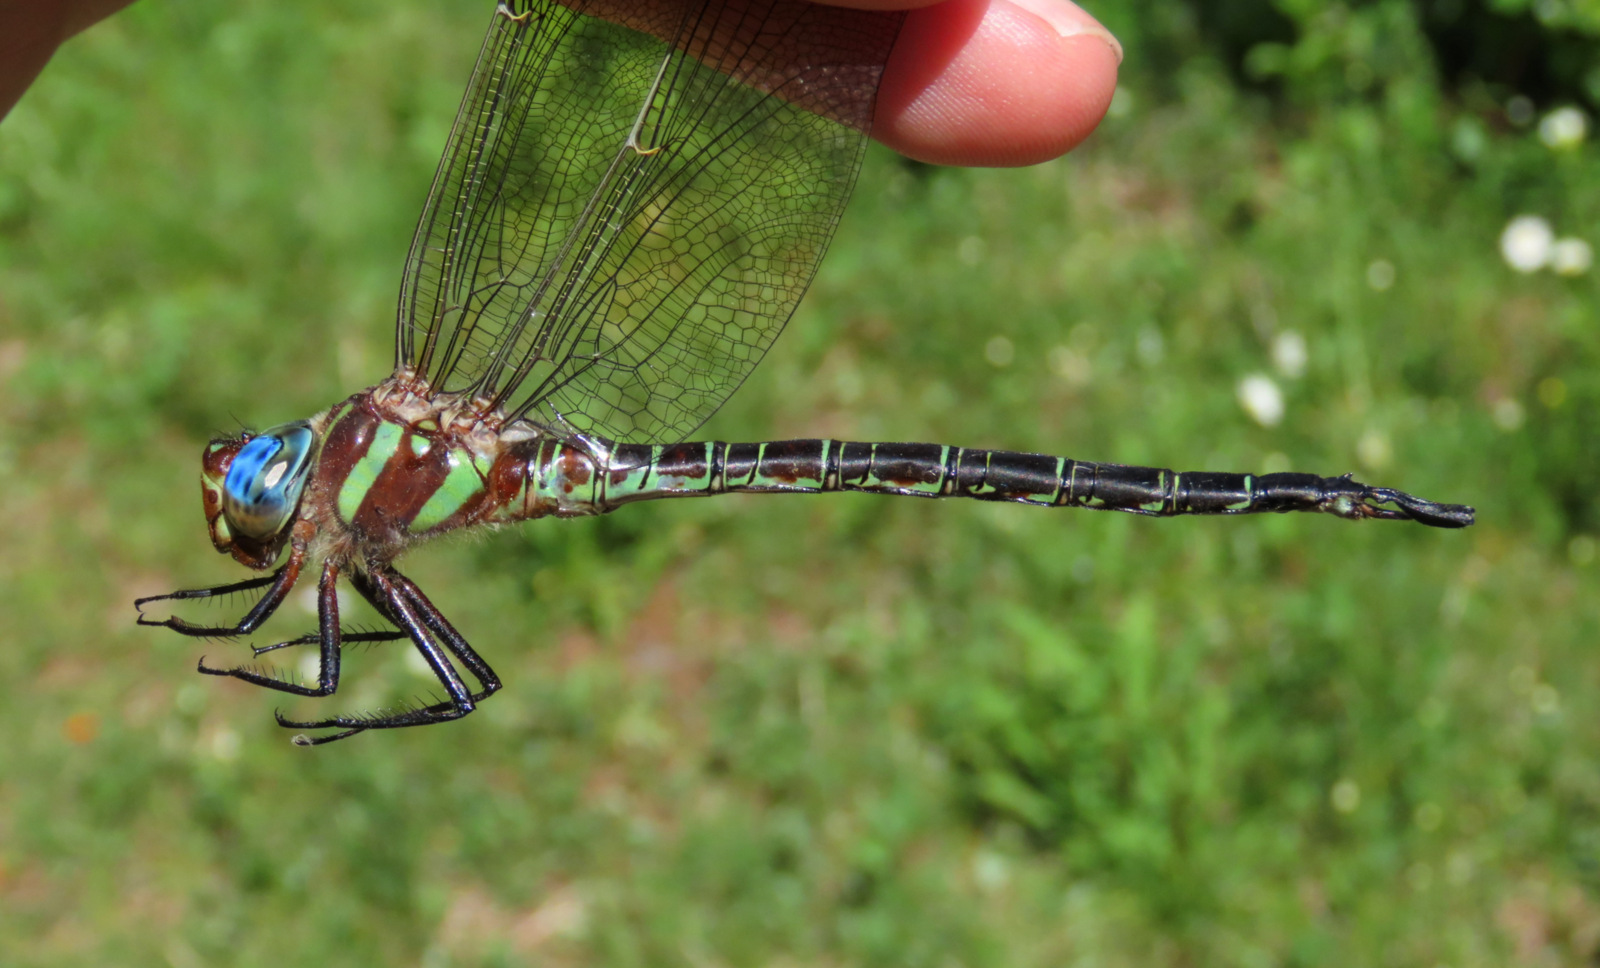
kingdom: Animalia
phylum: Arthropoda
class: Insecta
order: Odonata
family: Aeshnidae
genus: Epiaeschna
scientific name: Epiaeschna heros
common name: Swamp darner
